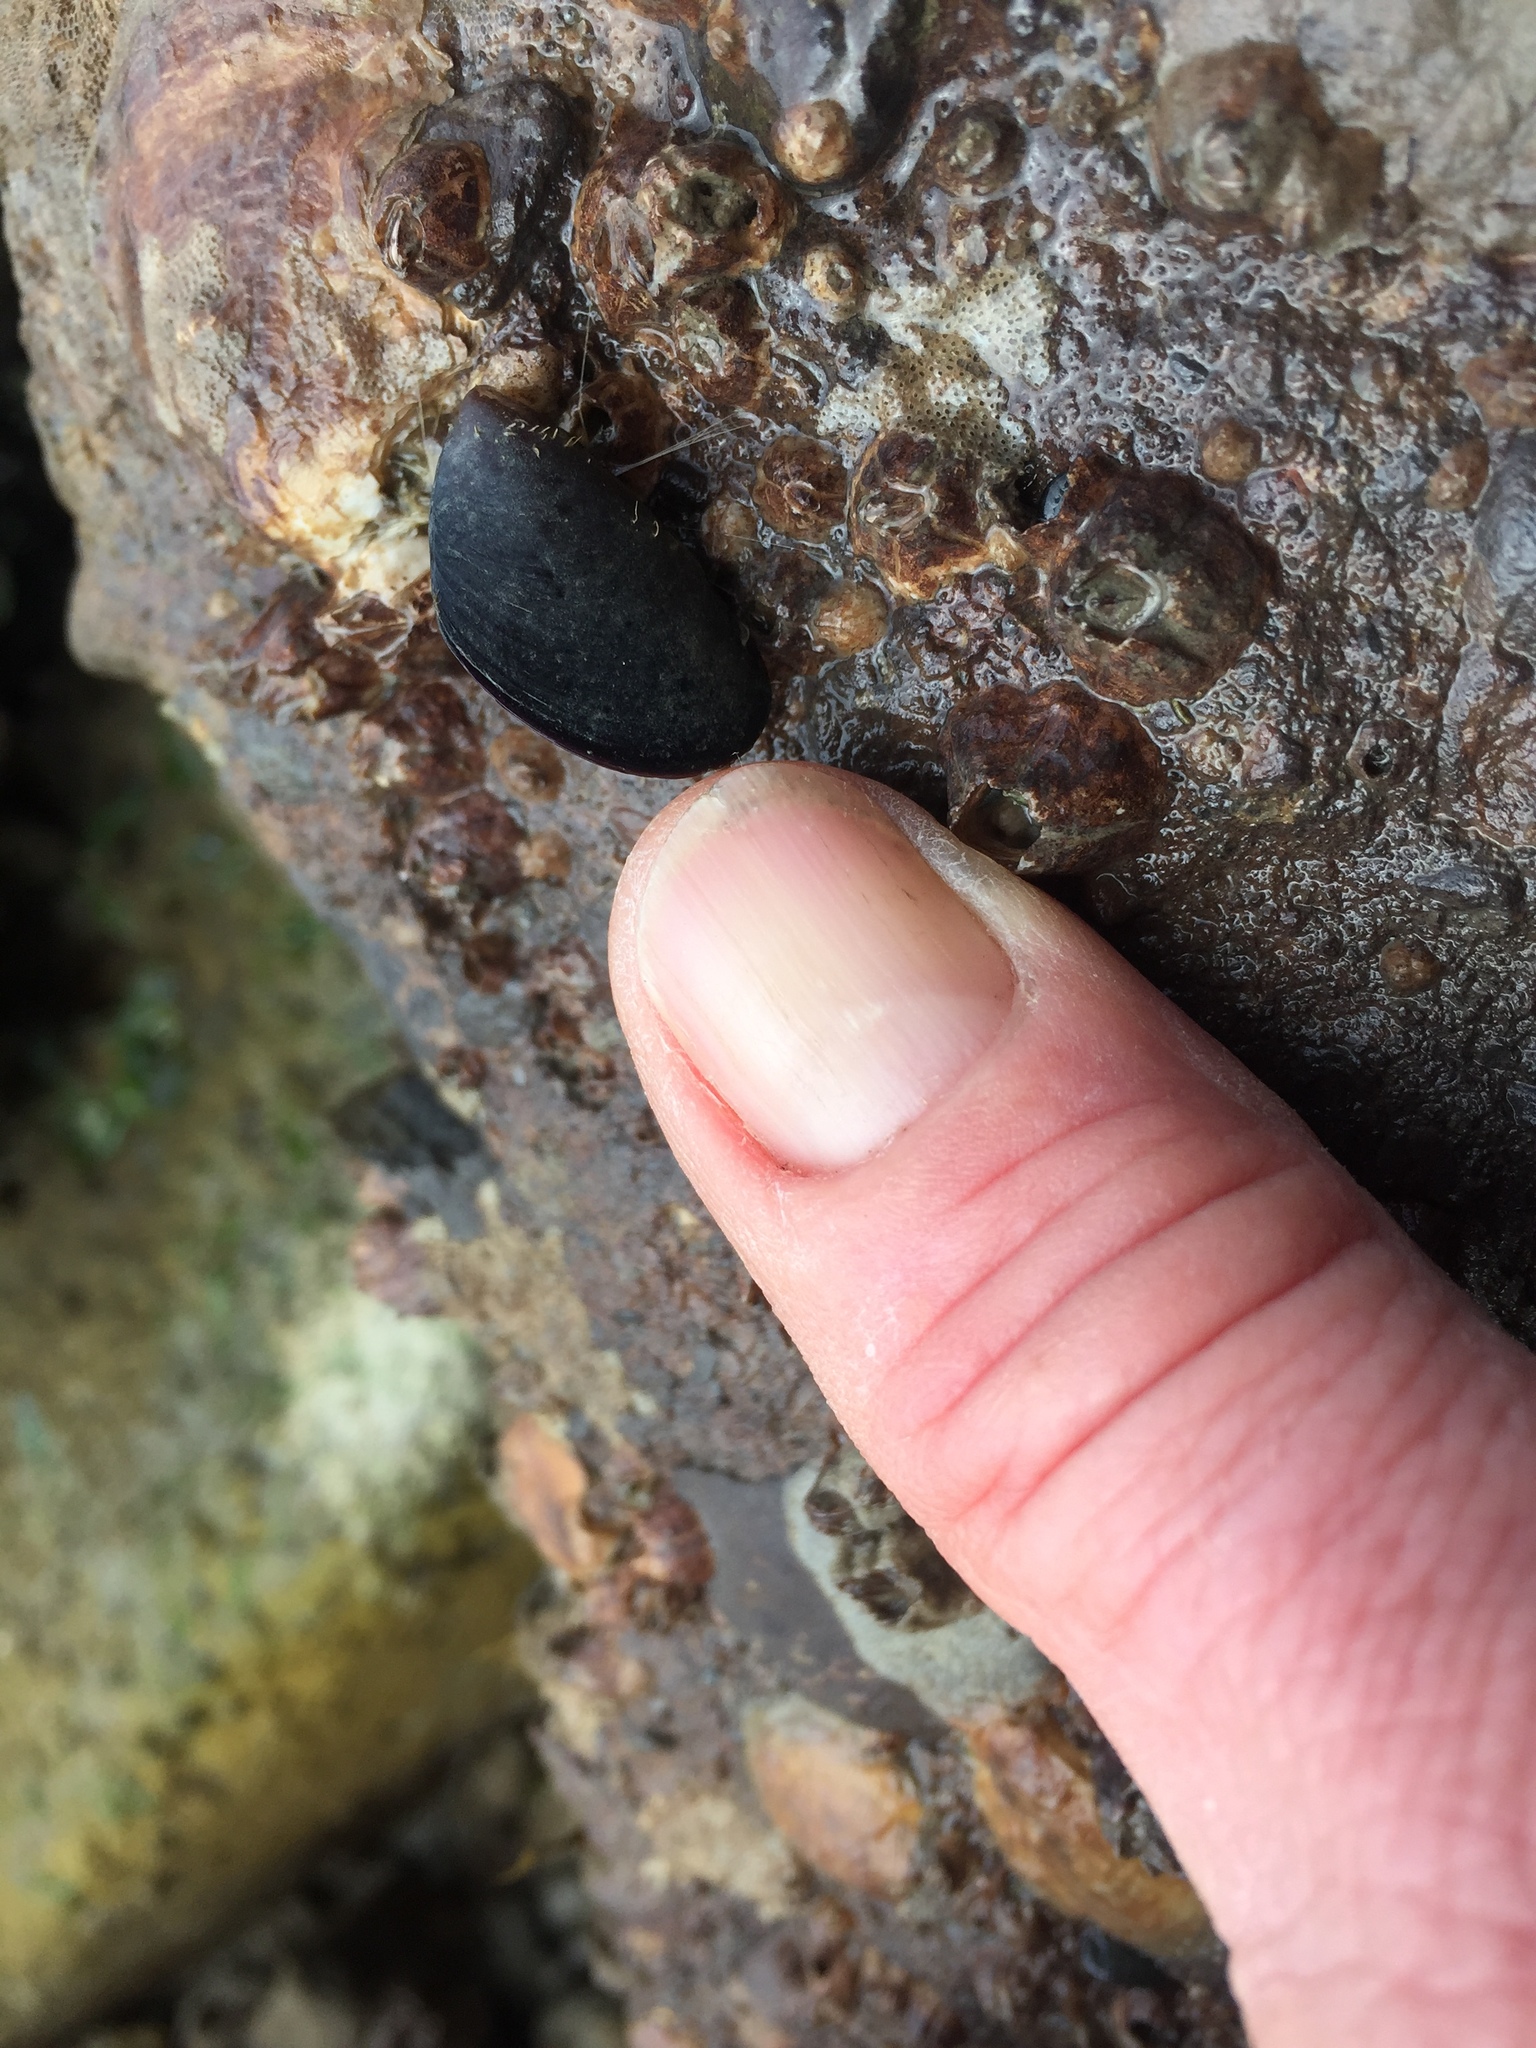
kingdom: Animalia
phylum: Mollusca
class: Bivalvia
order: Mytilida
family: Mytilidae
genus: Mytilus
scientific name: Mytilus
